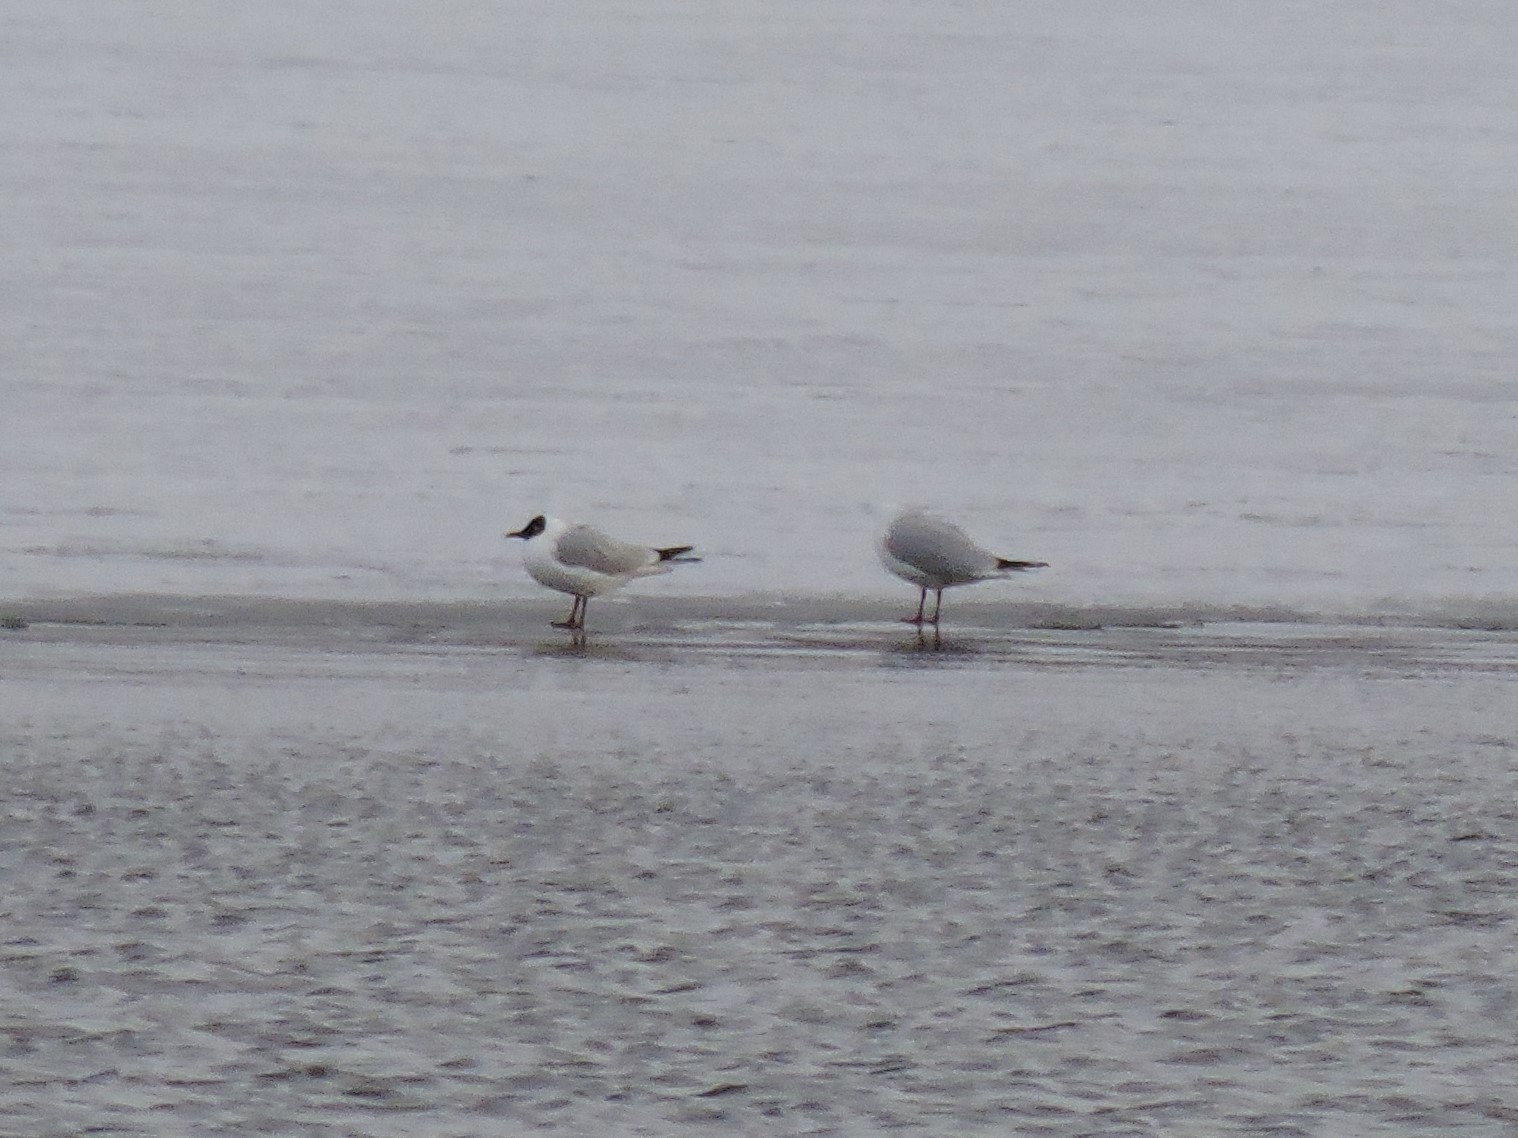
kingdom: Animalia
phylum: Chordata
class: Aves
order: Charadriiformes
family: Laridae
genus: Chroicocephalus
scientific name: Chroicocephalus ridibundus
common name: Black-headed gull
